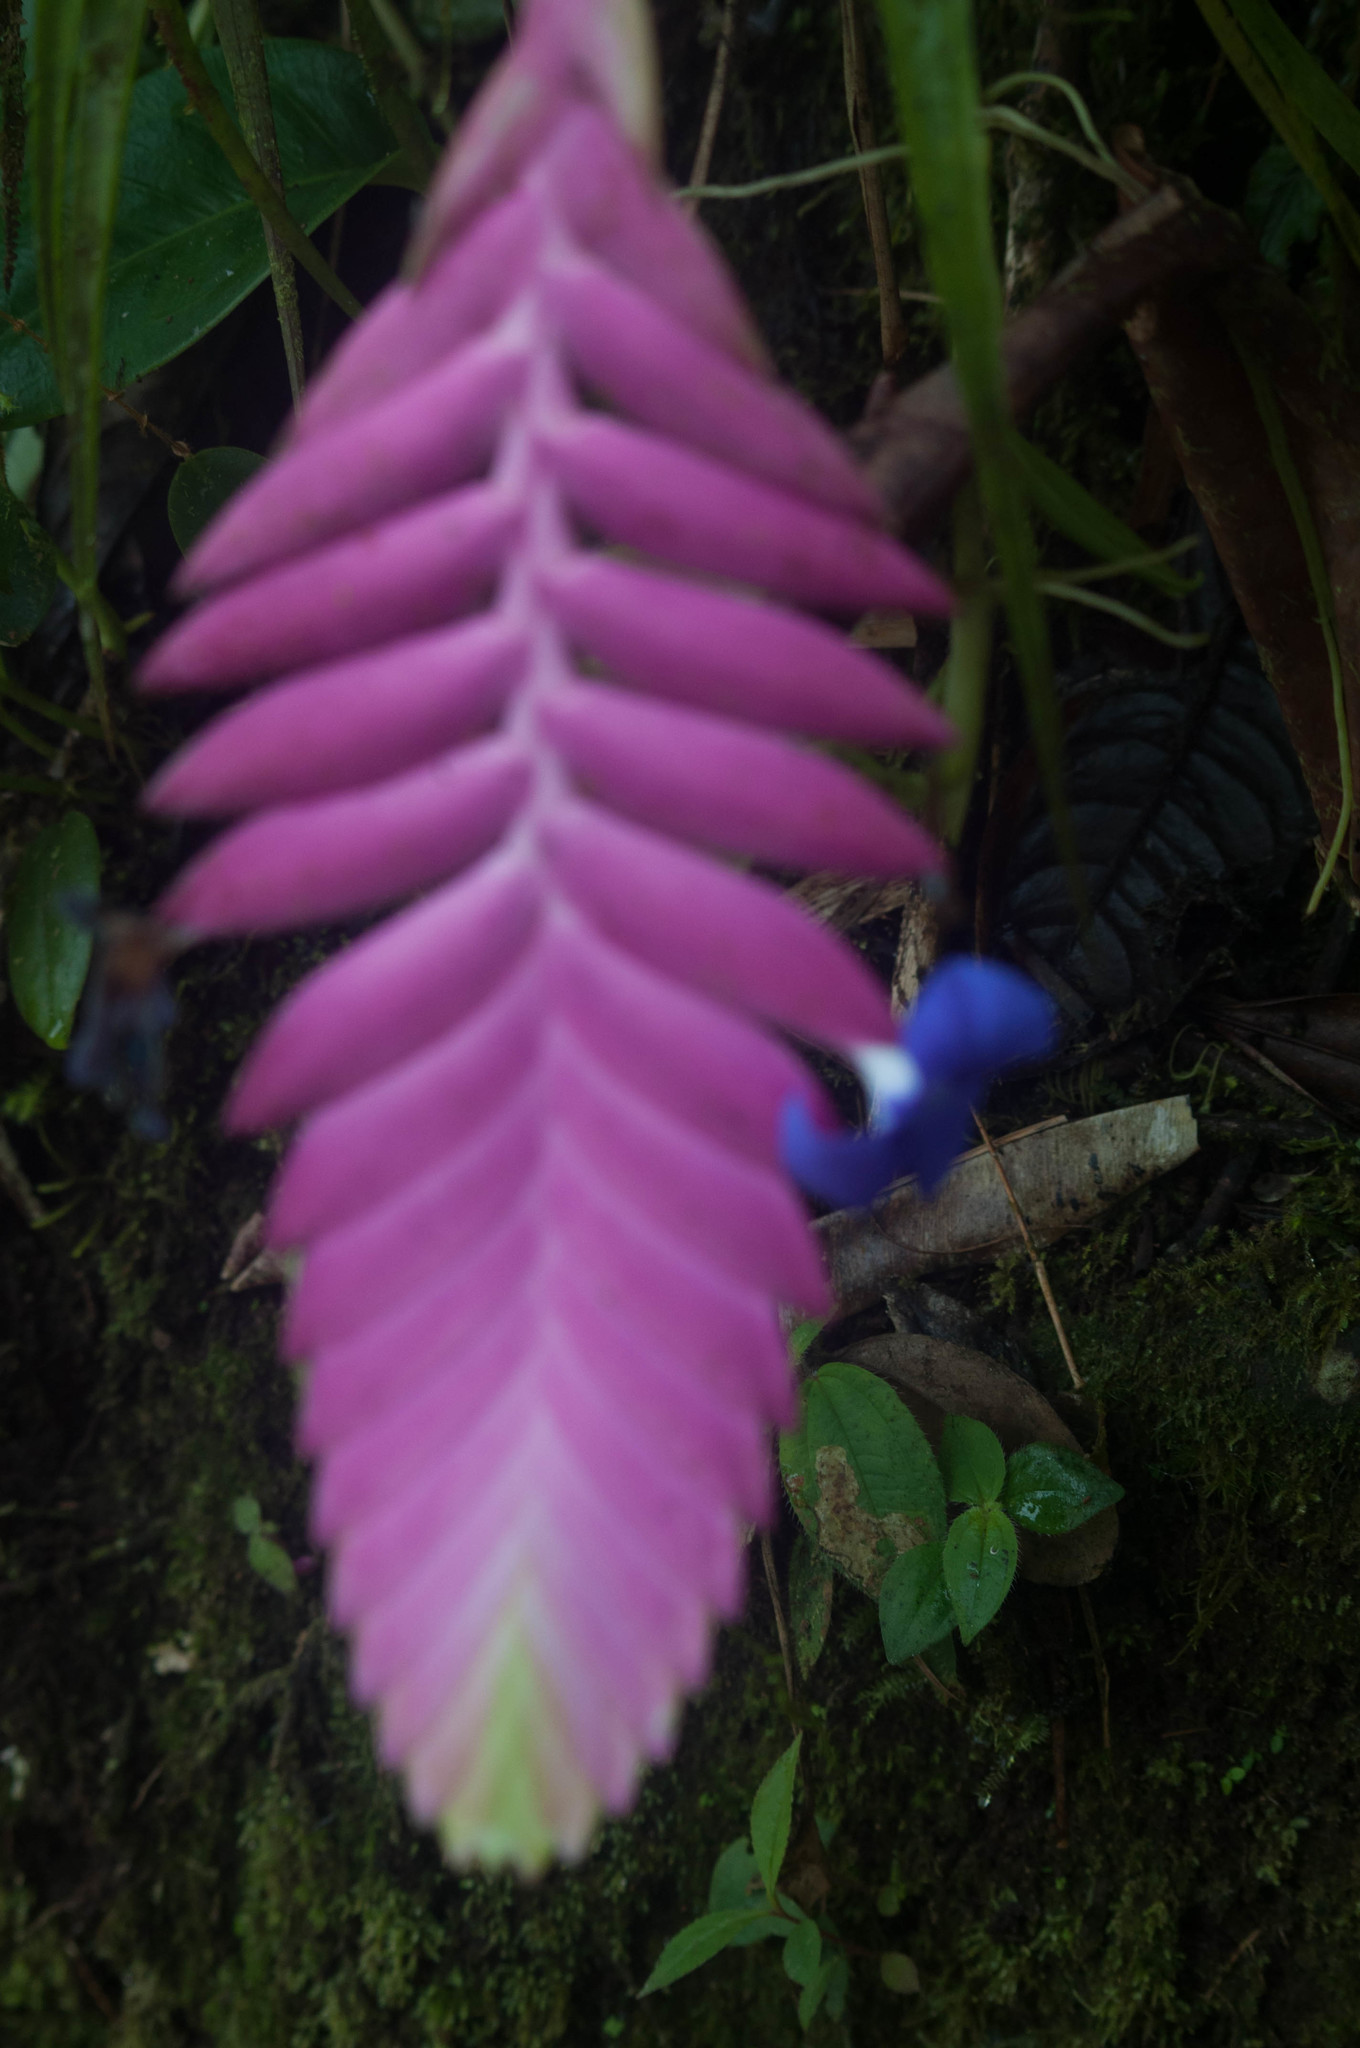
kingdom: Plantae
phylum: Tracheophyta
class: Liliopsida
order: Poales
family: Bromeliaceae
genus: Wallisia
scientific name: Wallisia pretiosa
